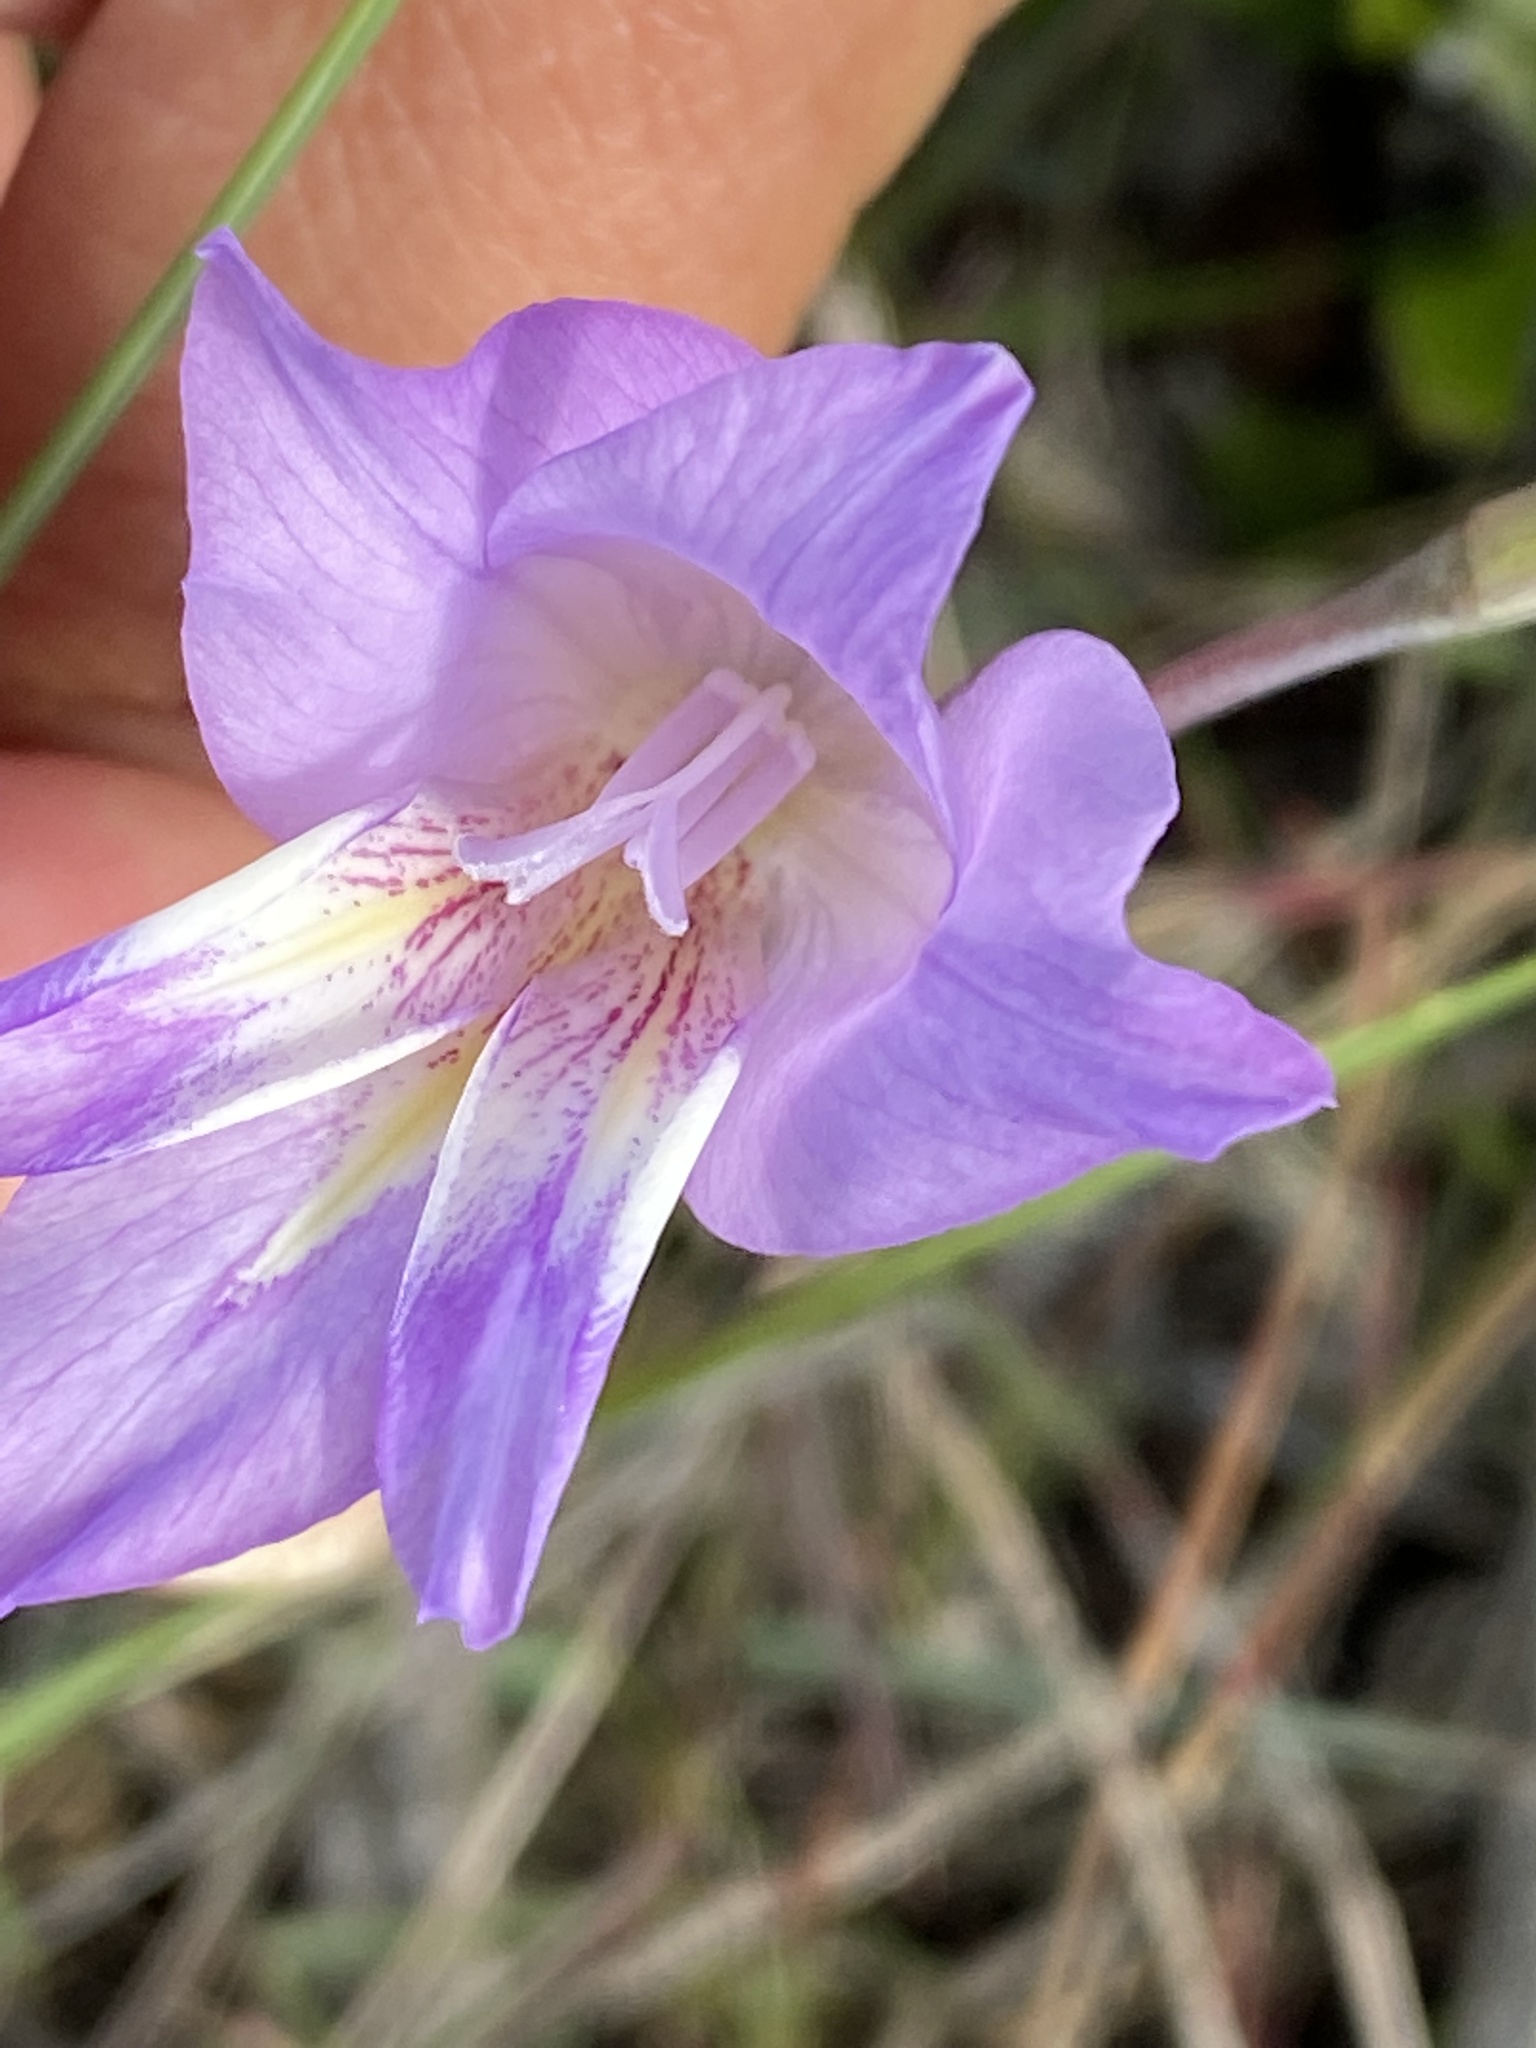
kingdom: Plantae
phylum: Tracheophyta
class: Liliopsida
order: Asparagales
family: Iridaceae
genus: Gladiolus
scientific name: Gladiolus carinatus
